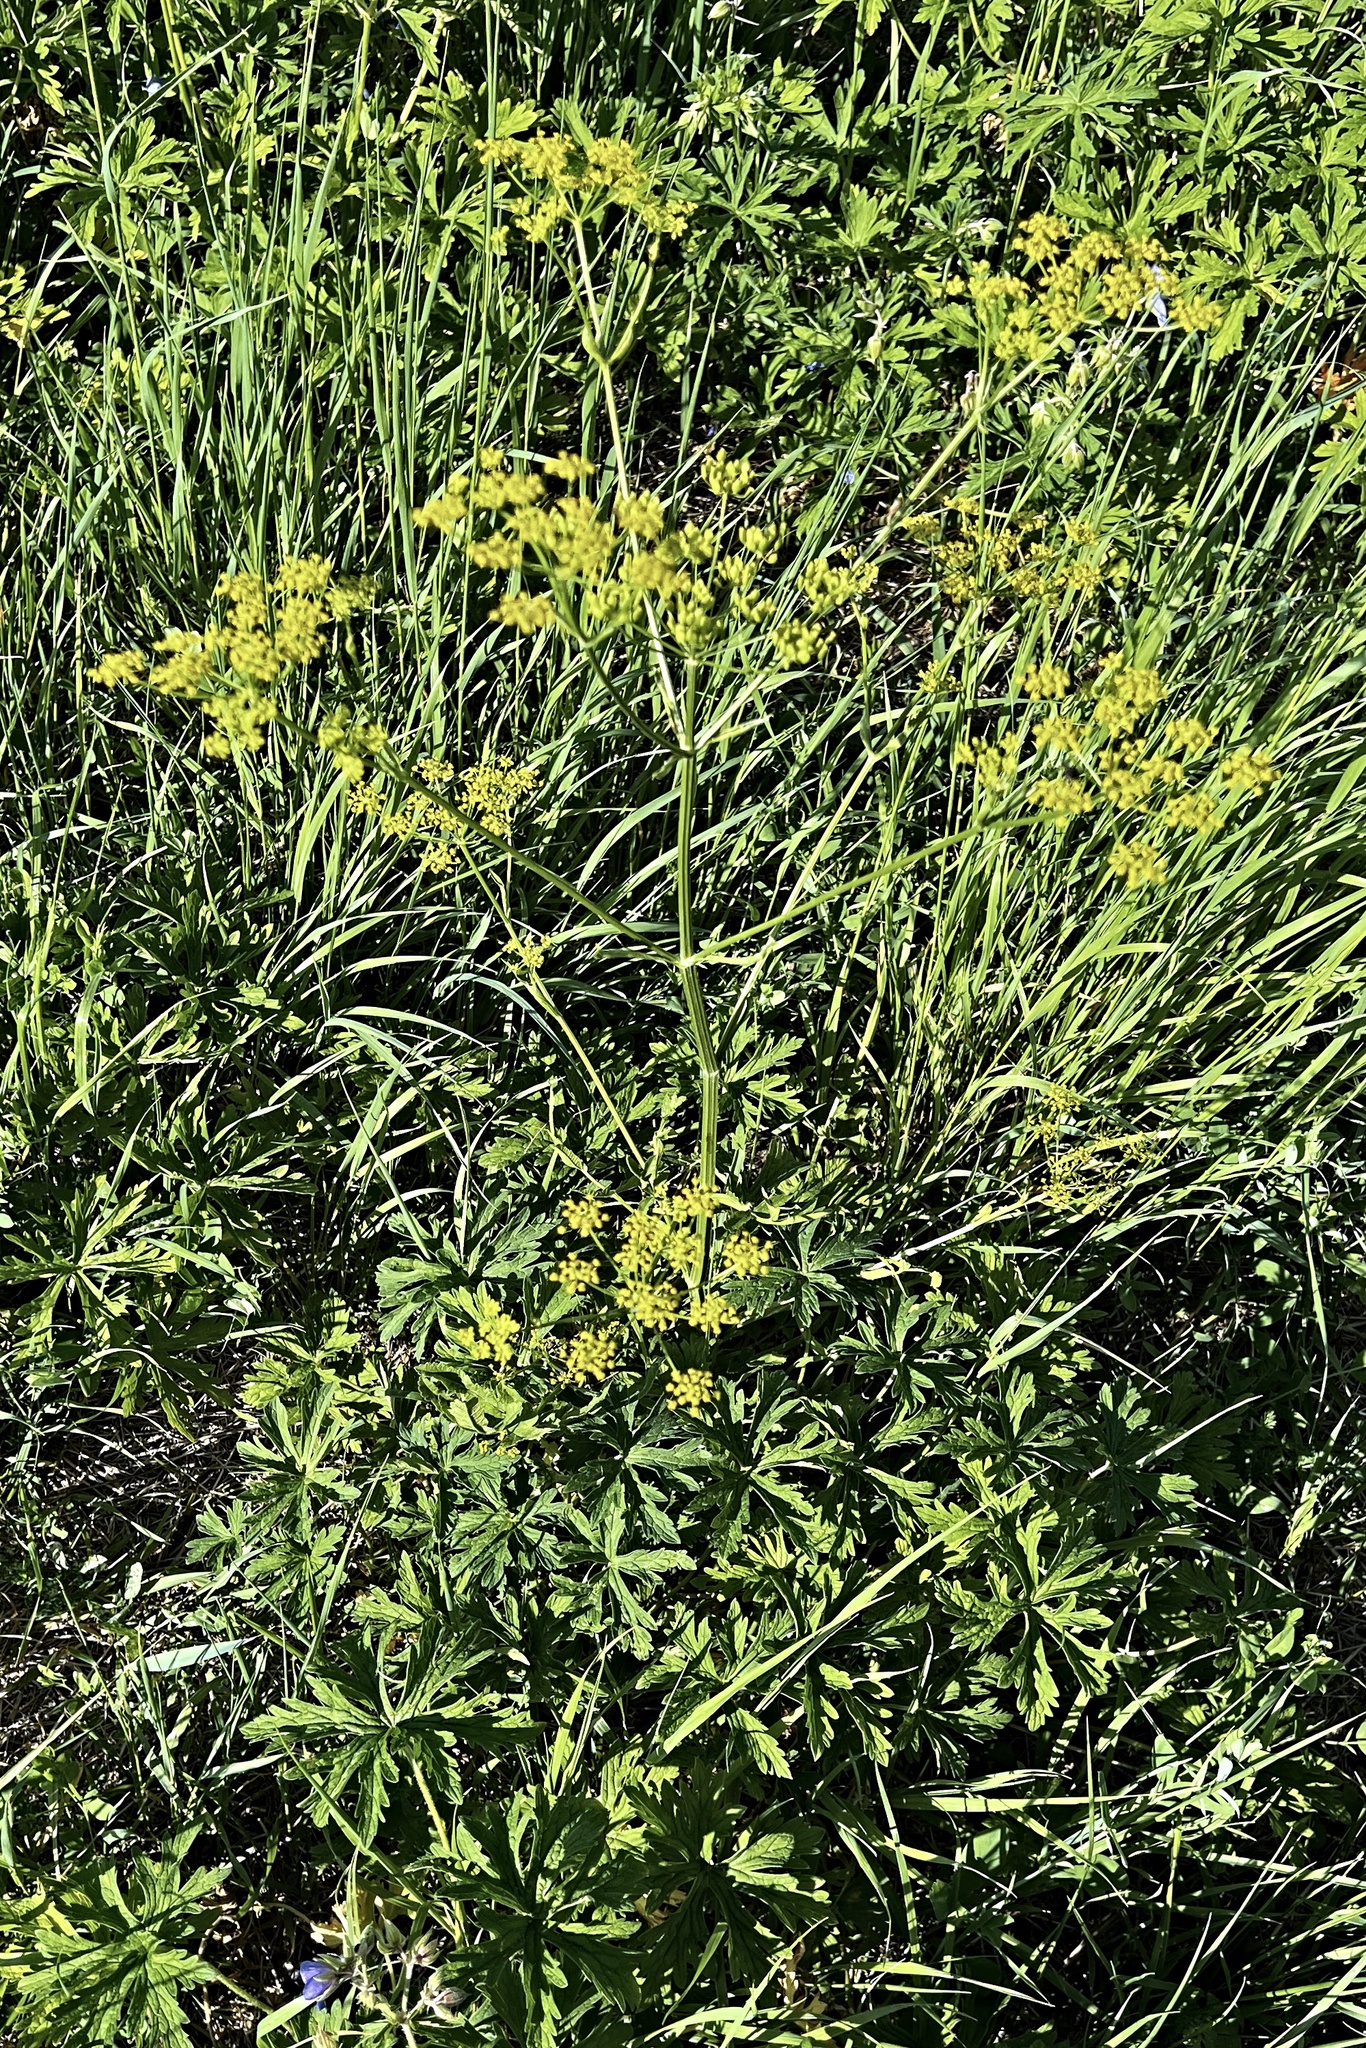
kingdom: Plantae
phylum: Tracheophyta
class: Magnoliopsida
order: Apiales
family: Apiaceae
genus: Pastinaca
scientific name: Pastinaca sativa
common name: Wild parsnip
